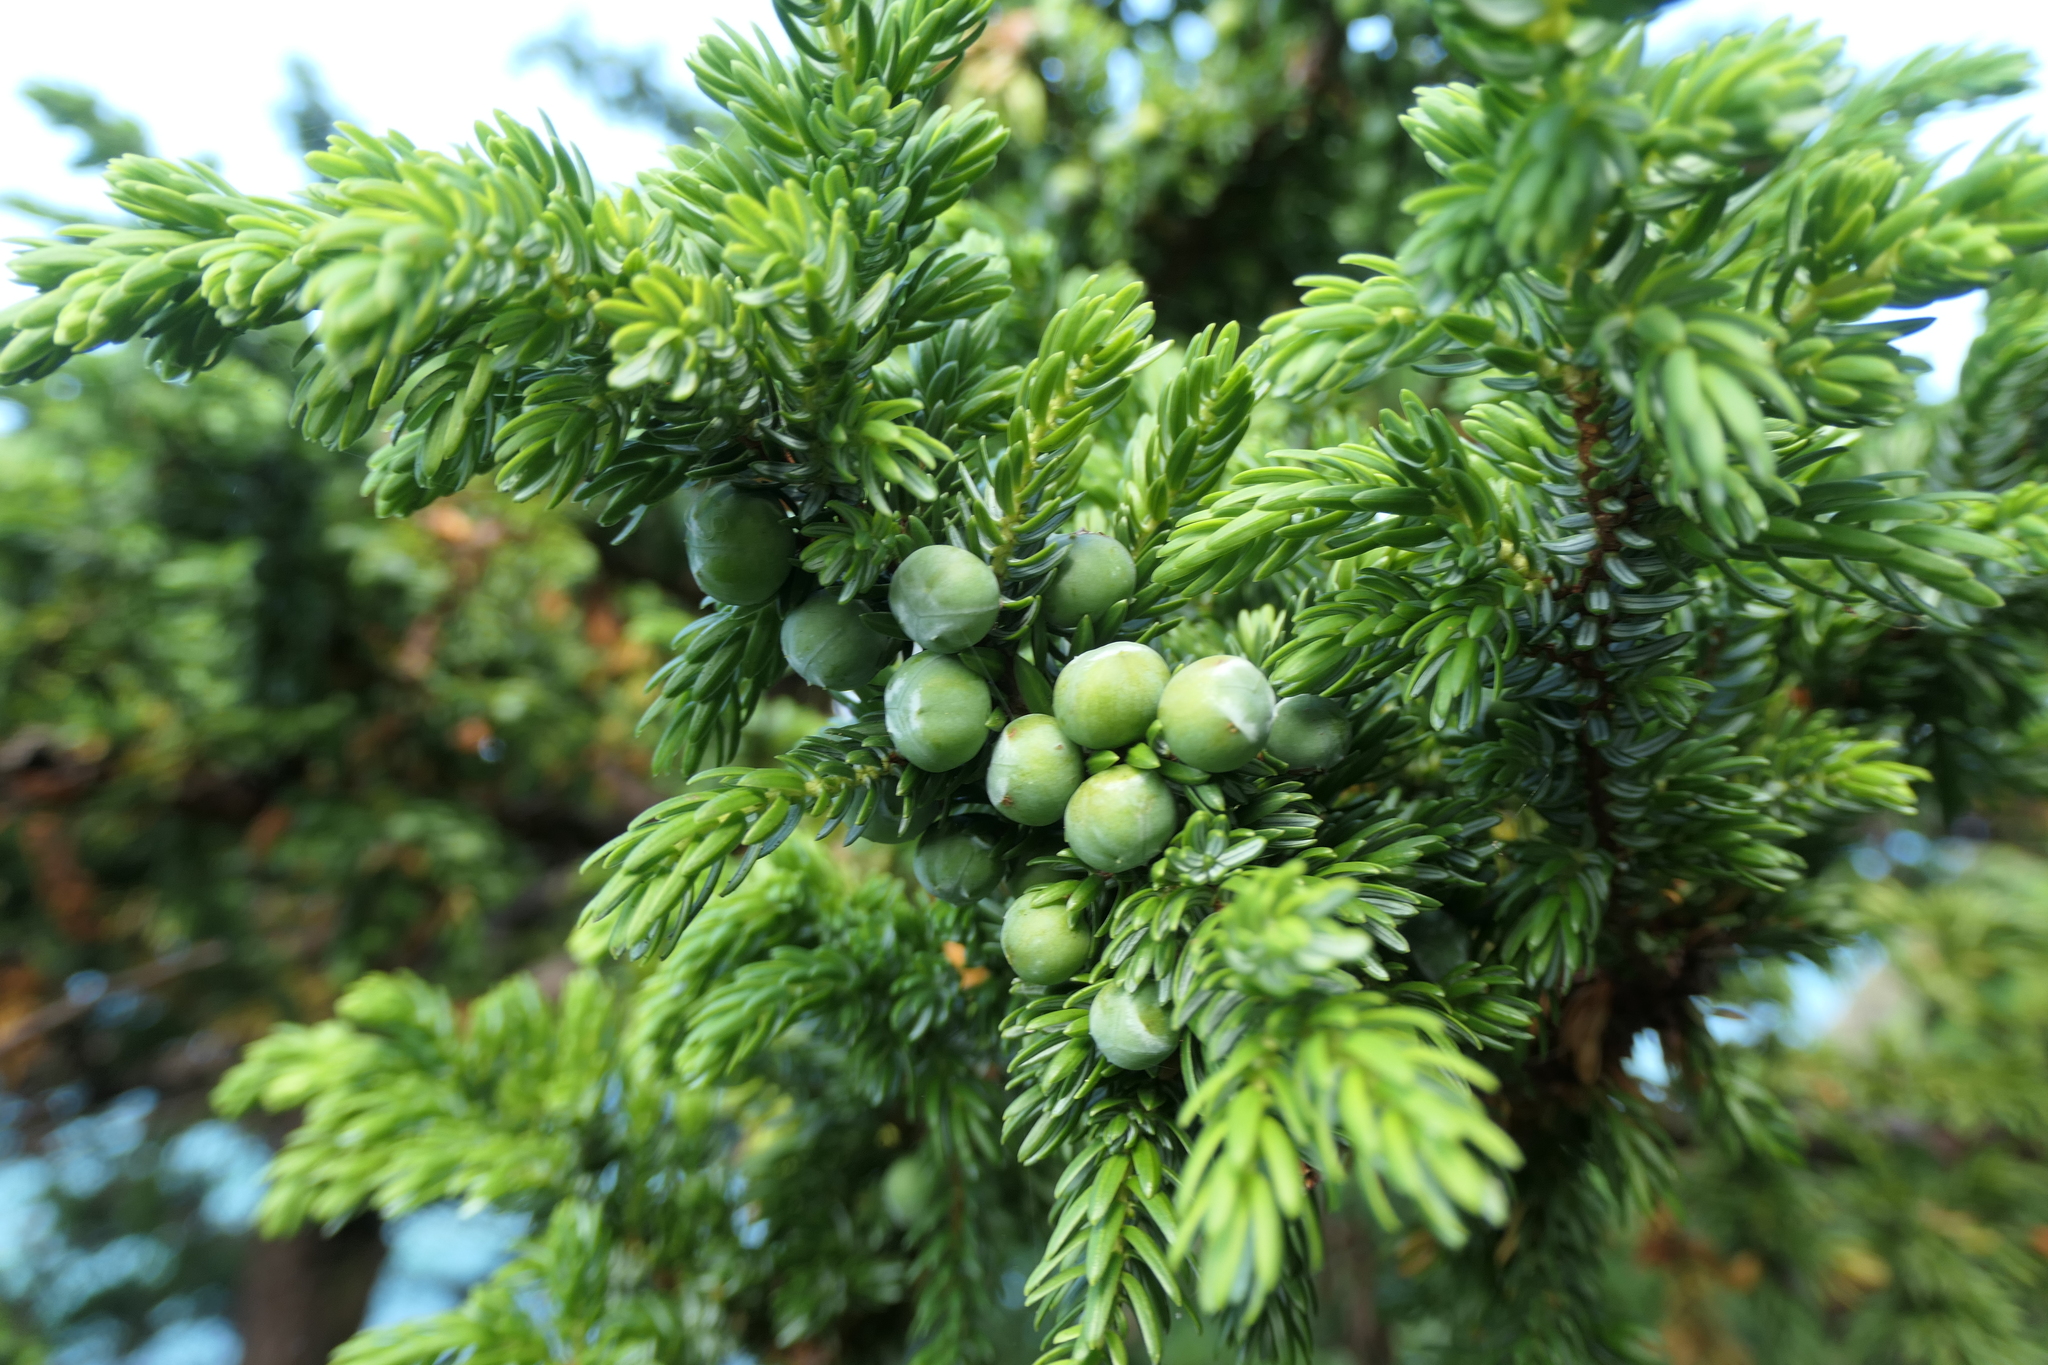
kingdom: Plantae
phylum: Tracheophyta
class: Pinopsida
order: Pinales
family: Cupressaceae
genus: Juniperus
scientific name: Juniperus brevifolia
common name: Azores juniper
